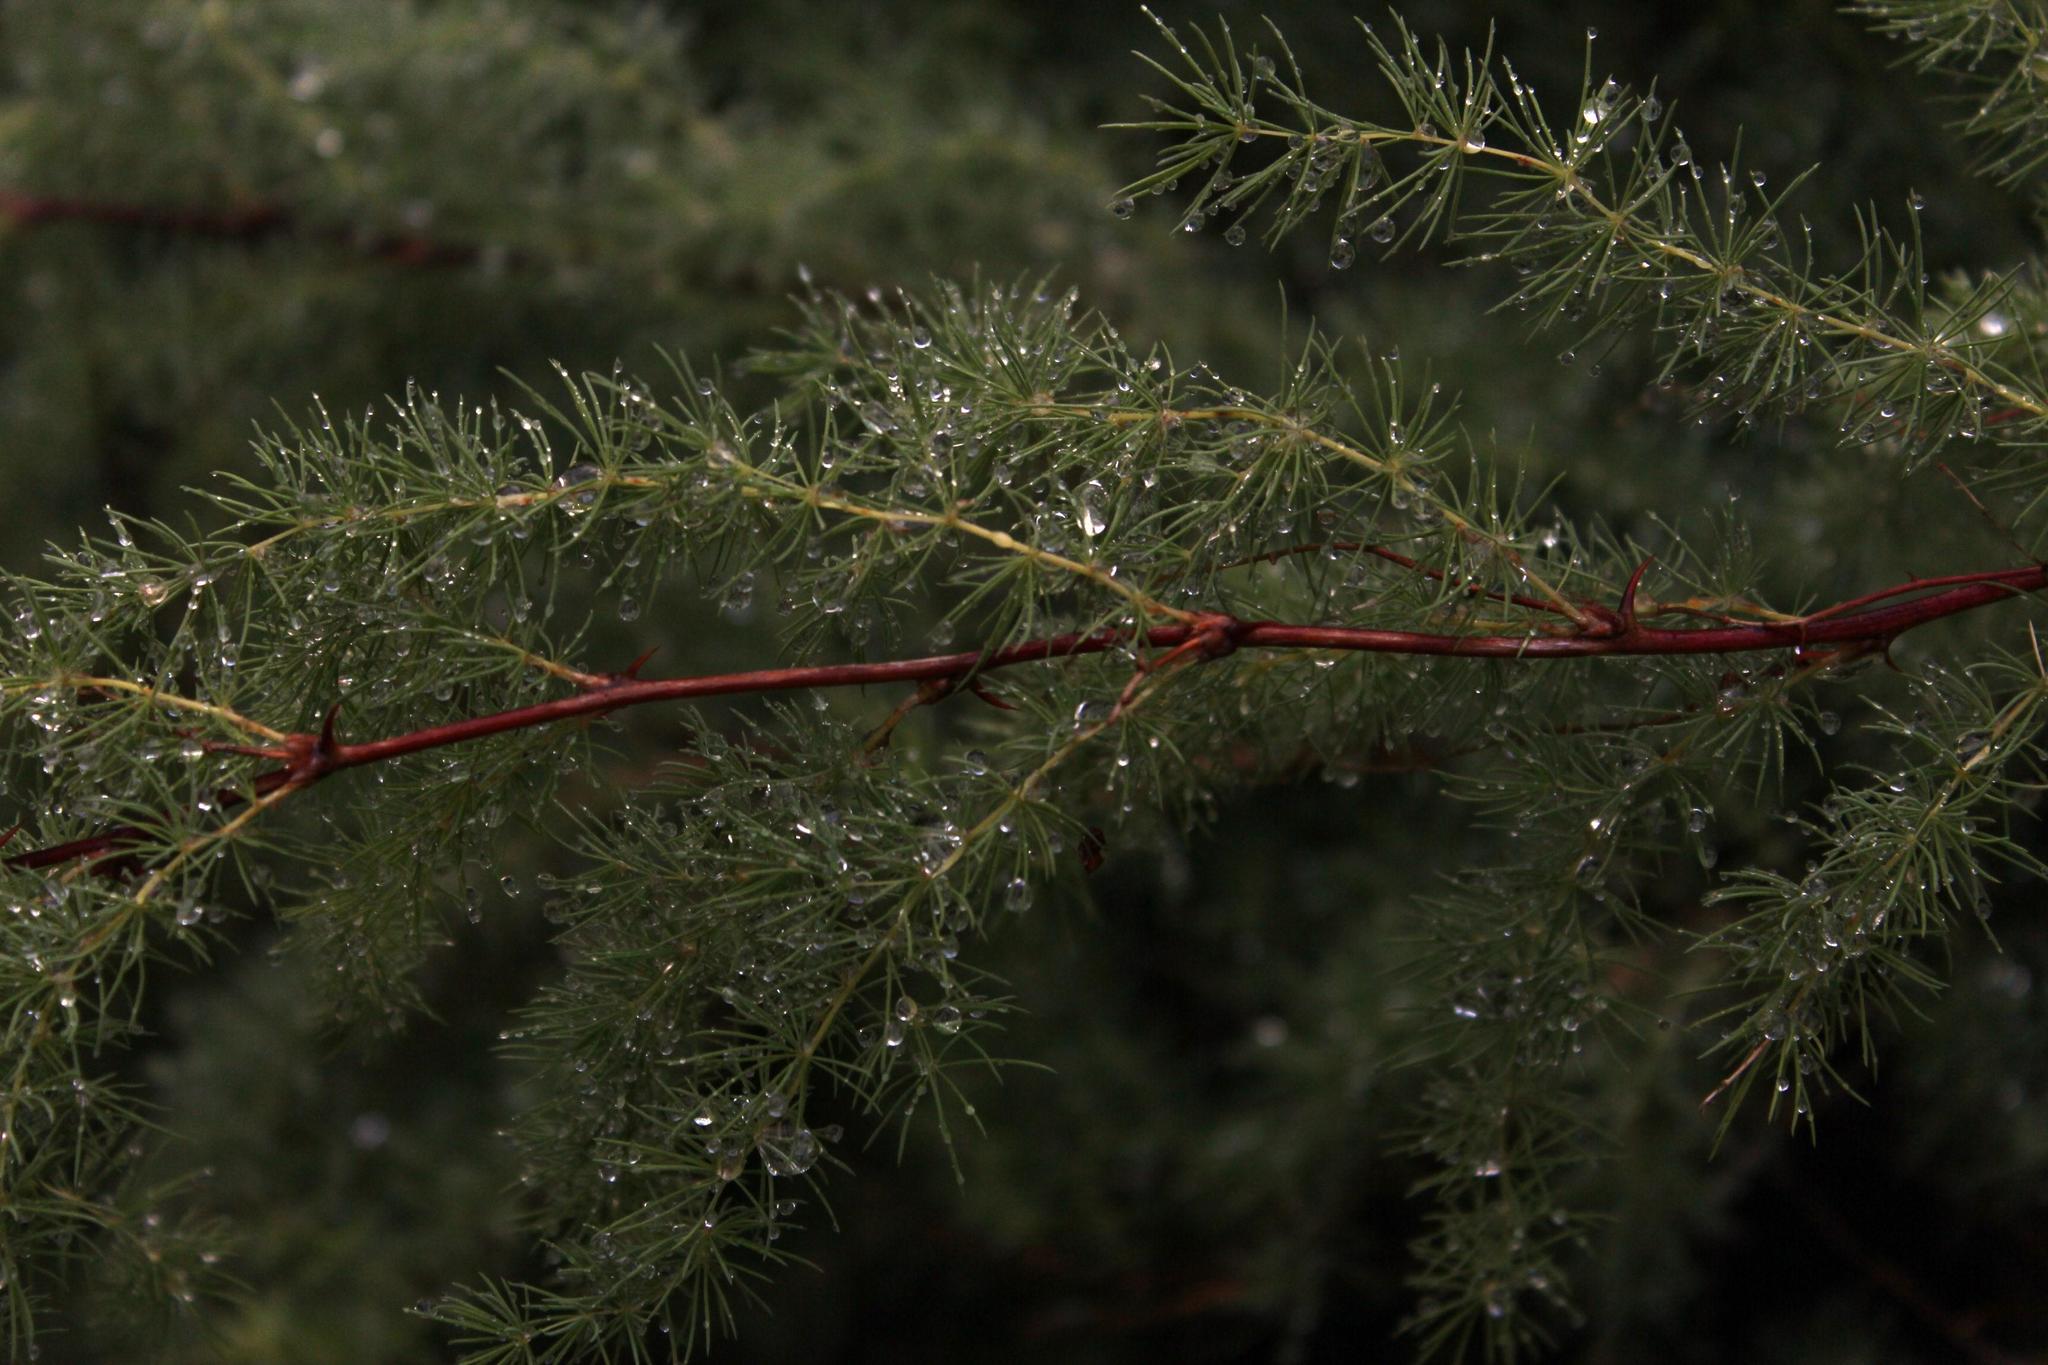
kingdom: Plantae
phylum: Tracheophyta
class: Liliopsida
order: Asparagales
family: Asparagaceae
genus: Asparagus
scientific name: Asparagus rubicundus
